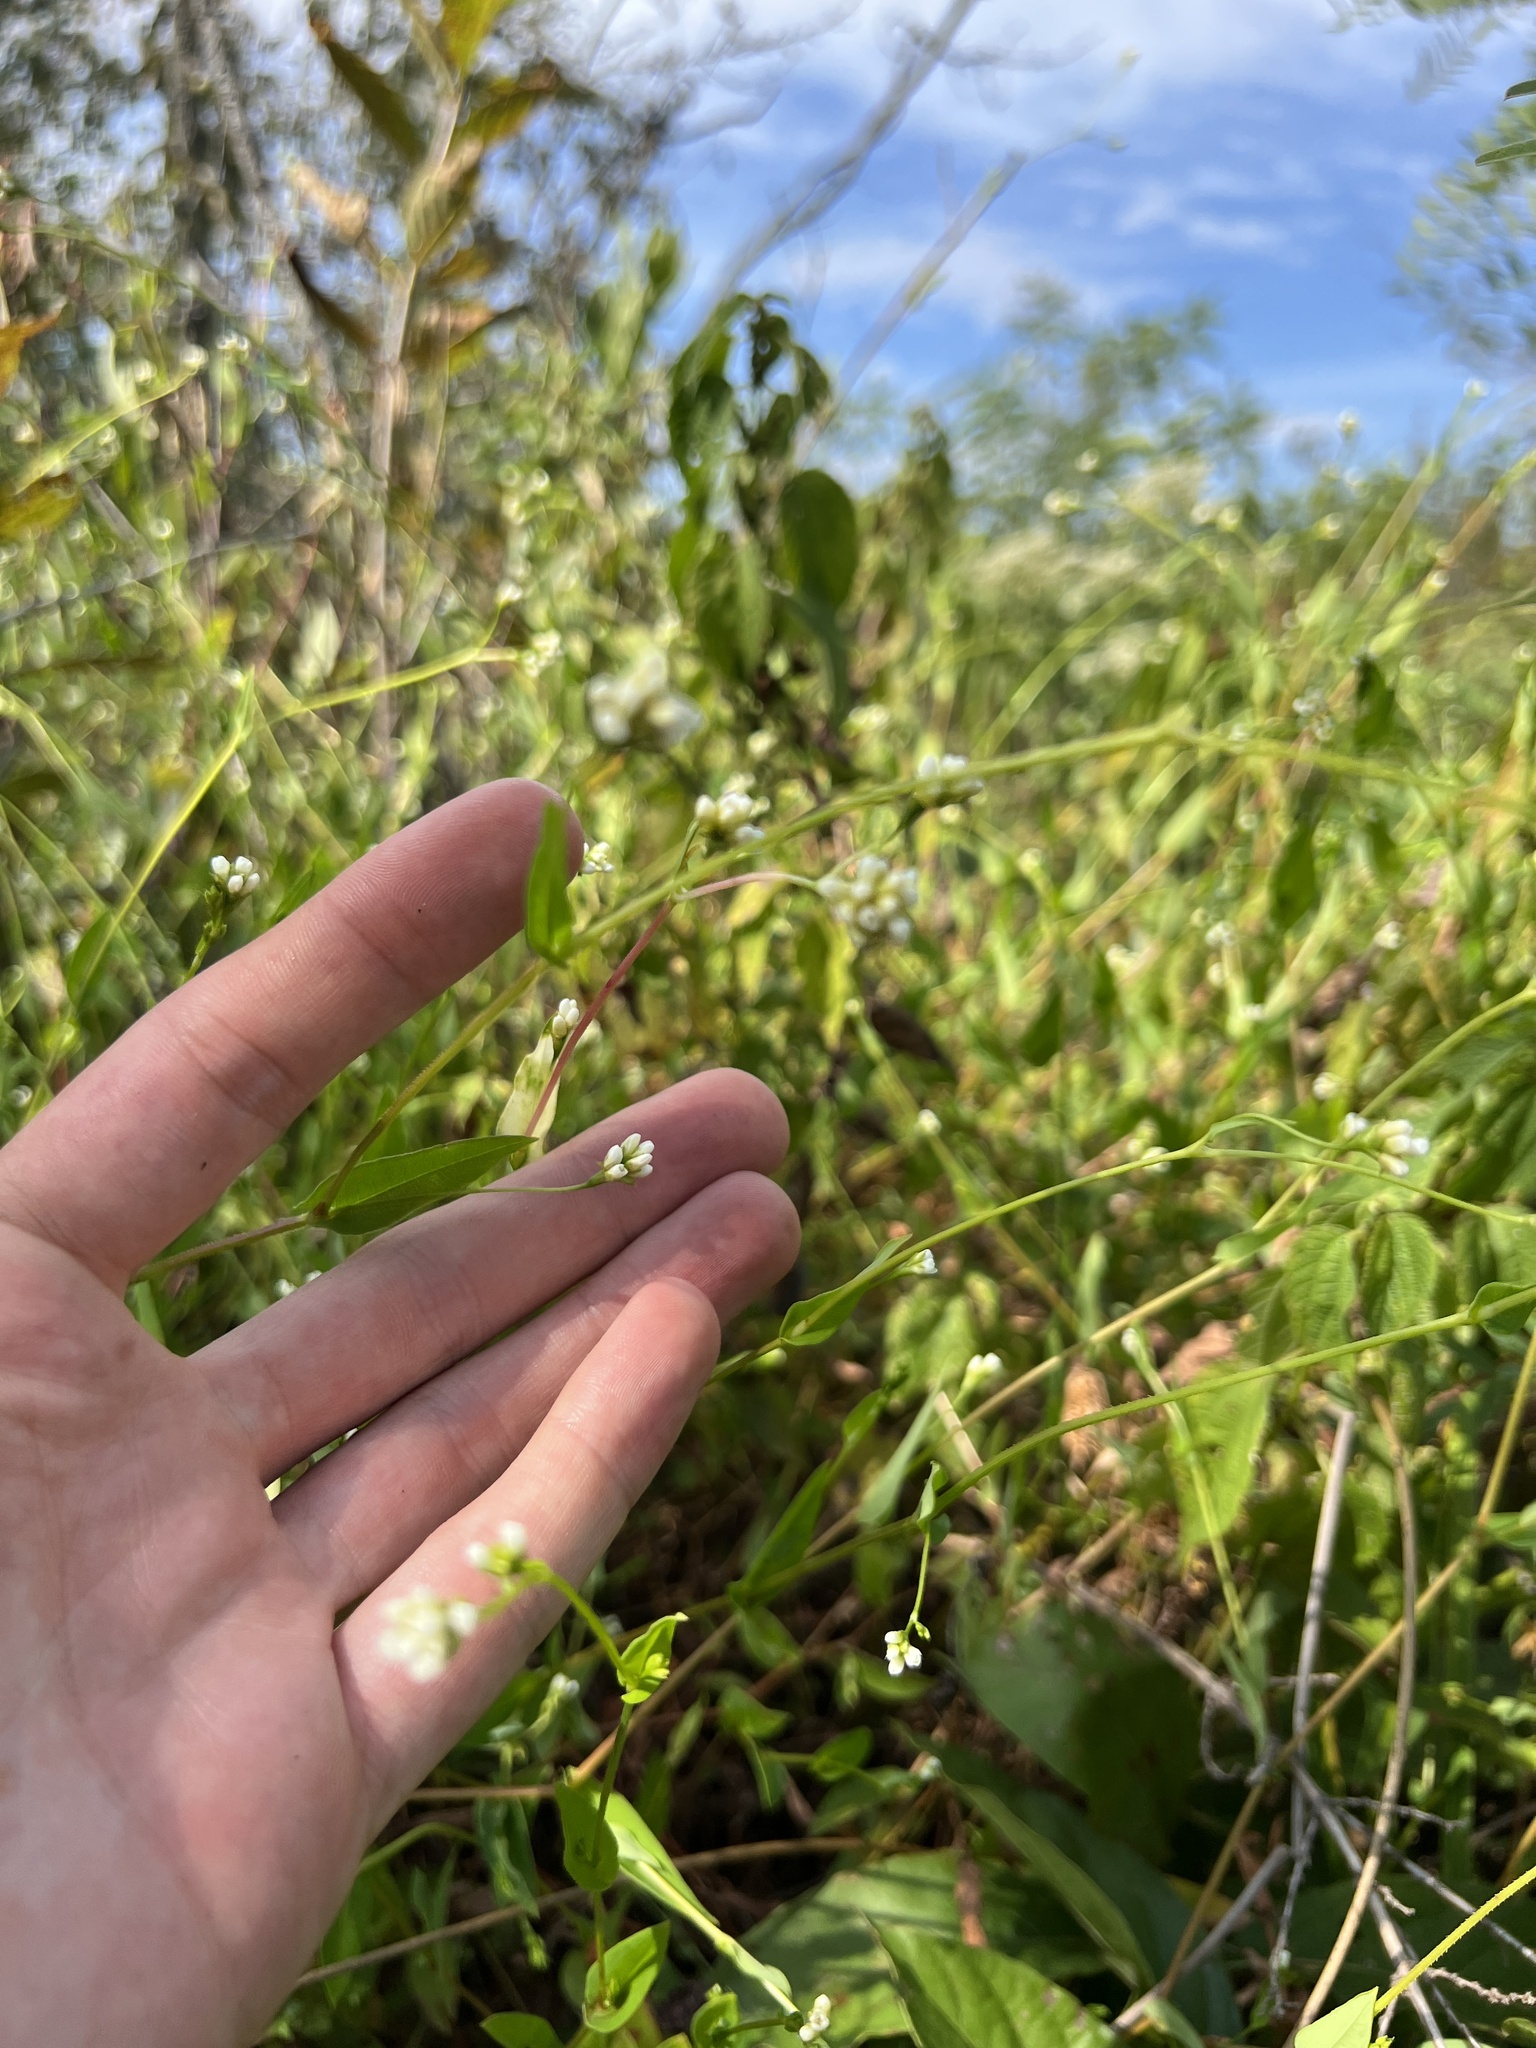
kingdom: Plantae
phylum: Tracheophyta
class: Magnoliopsida
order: Caryophyllales
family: Polygonaceae
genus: Persicaria
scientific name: Persicaria sagittata
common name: American tearthumb
